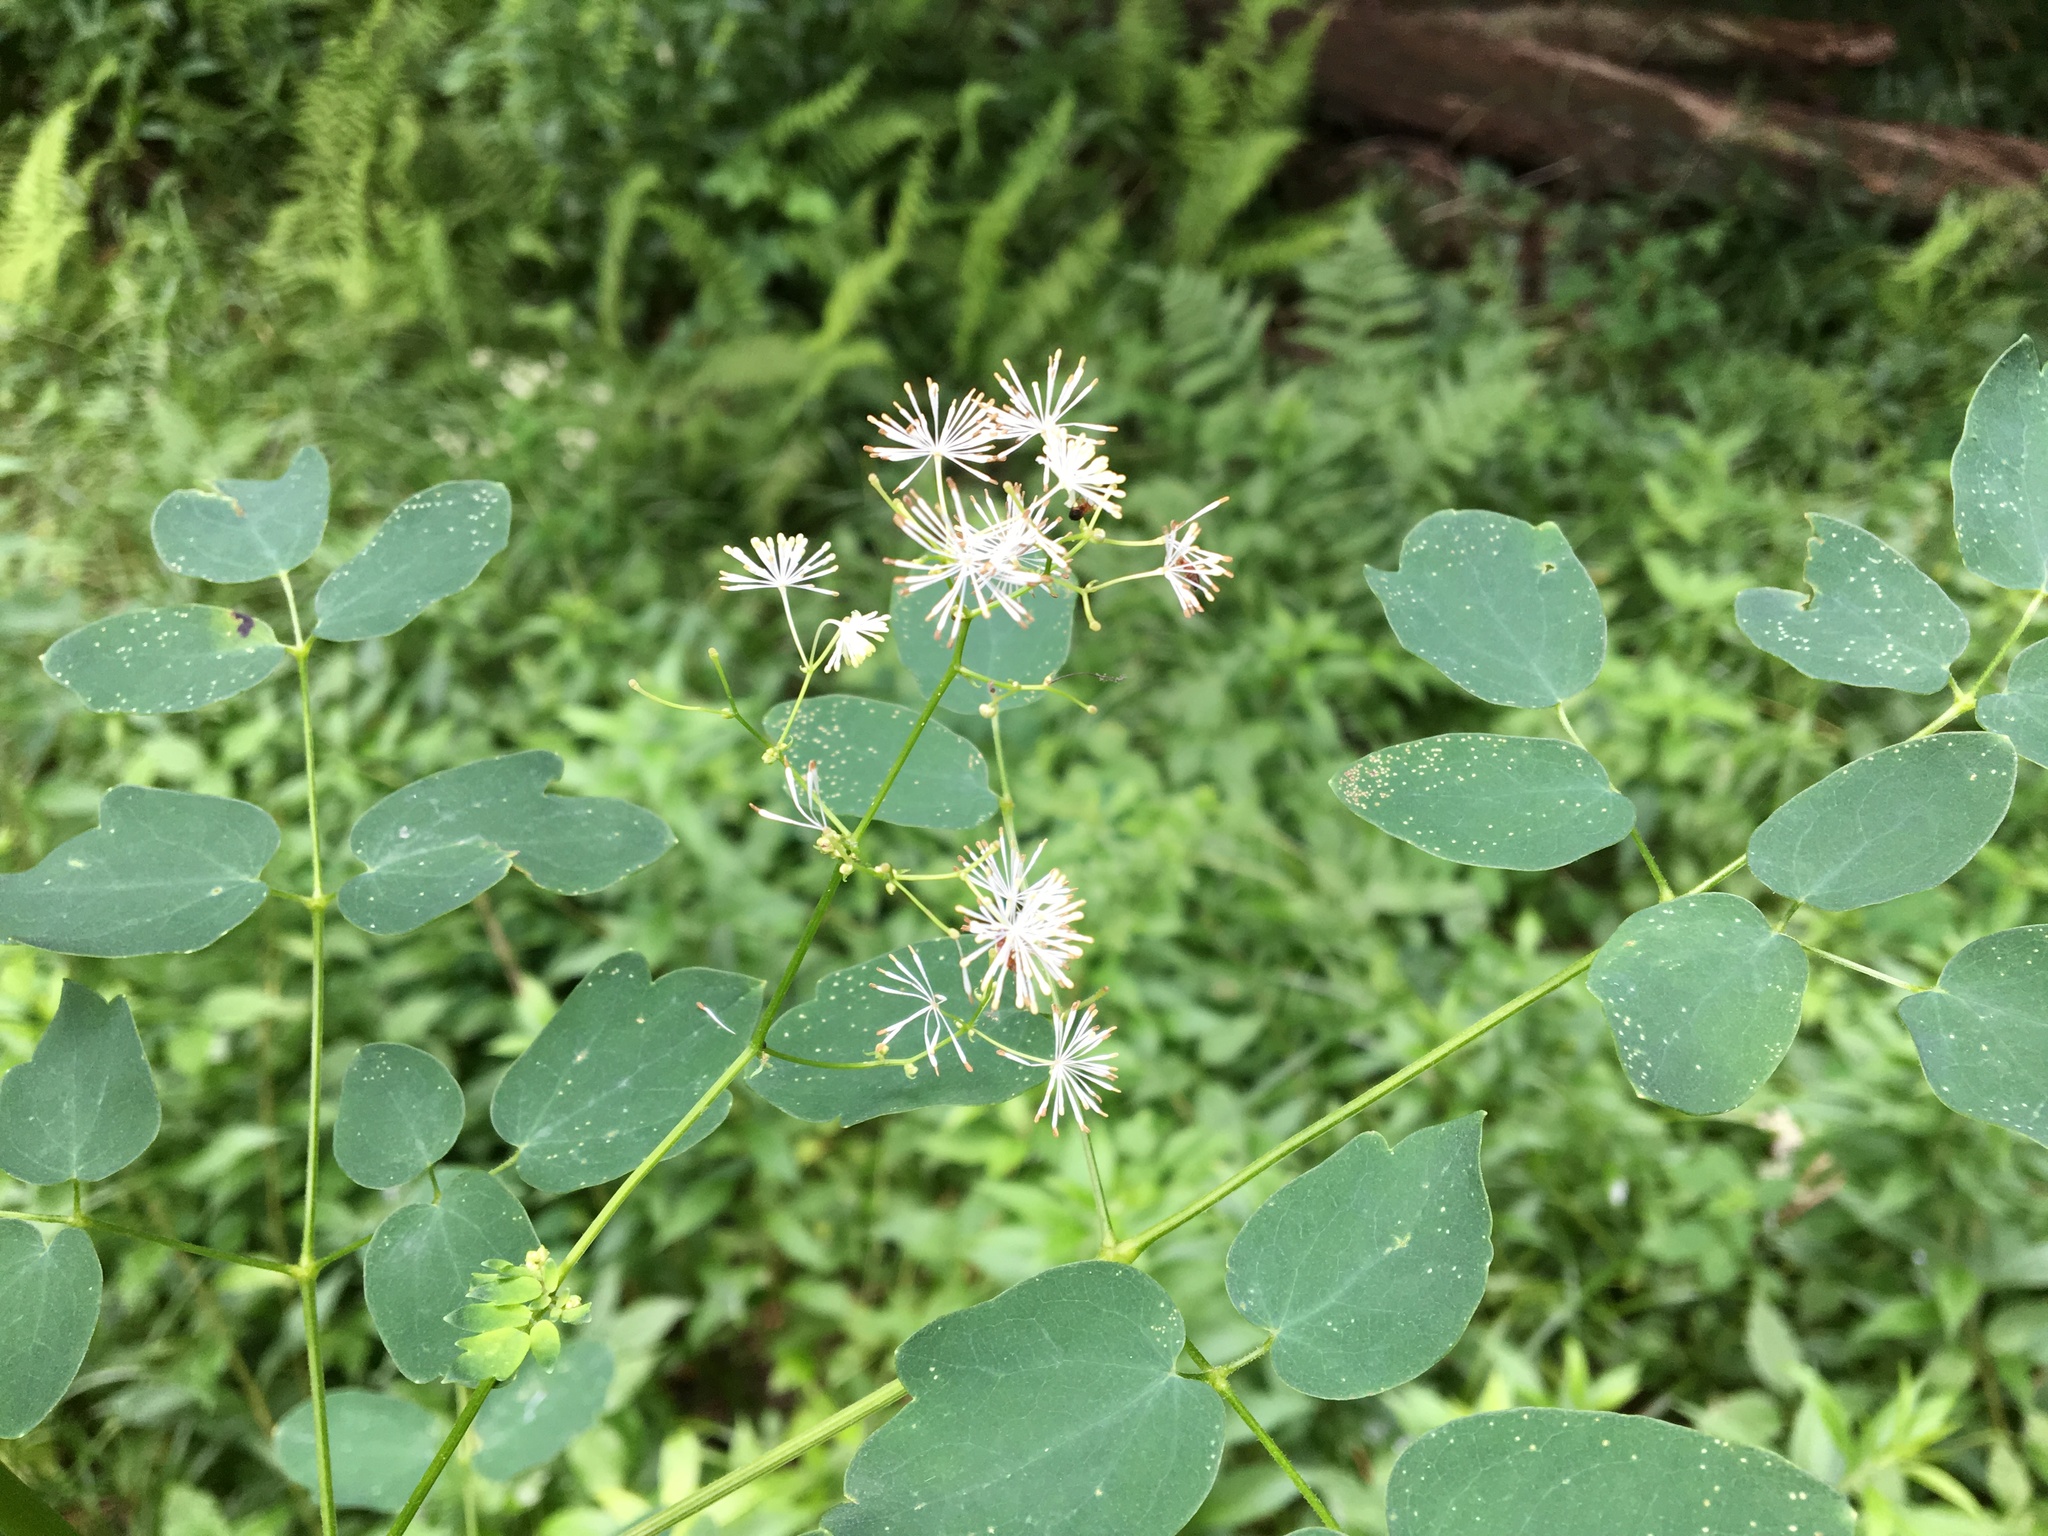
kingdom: Plantae
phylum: Tracheophyta
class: Magnoliopsida
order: Ranunculales
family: Ranunculaceae
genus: Thalictrum
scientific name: Thalictrum pubescens
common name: King-of-the-meadow
